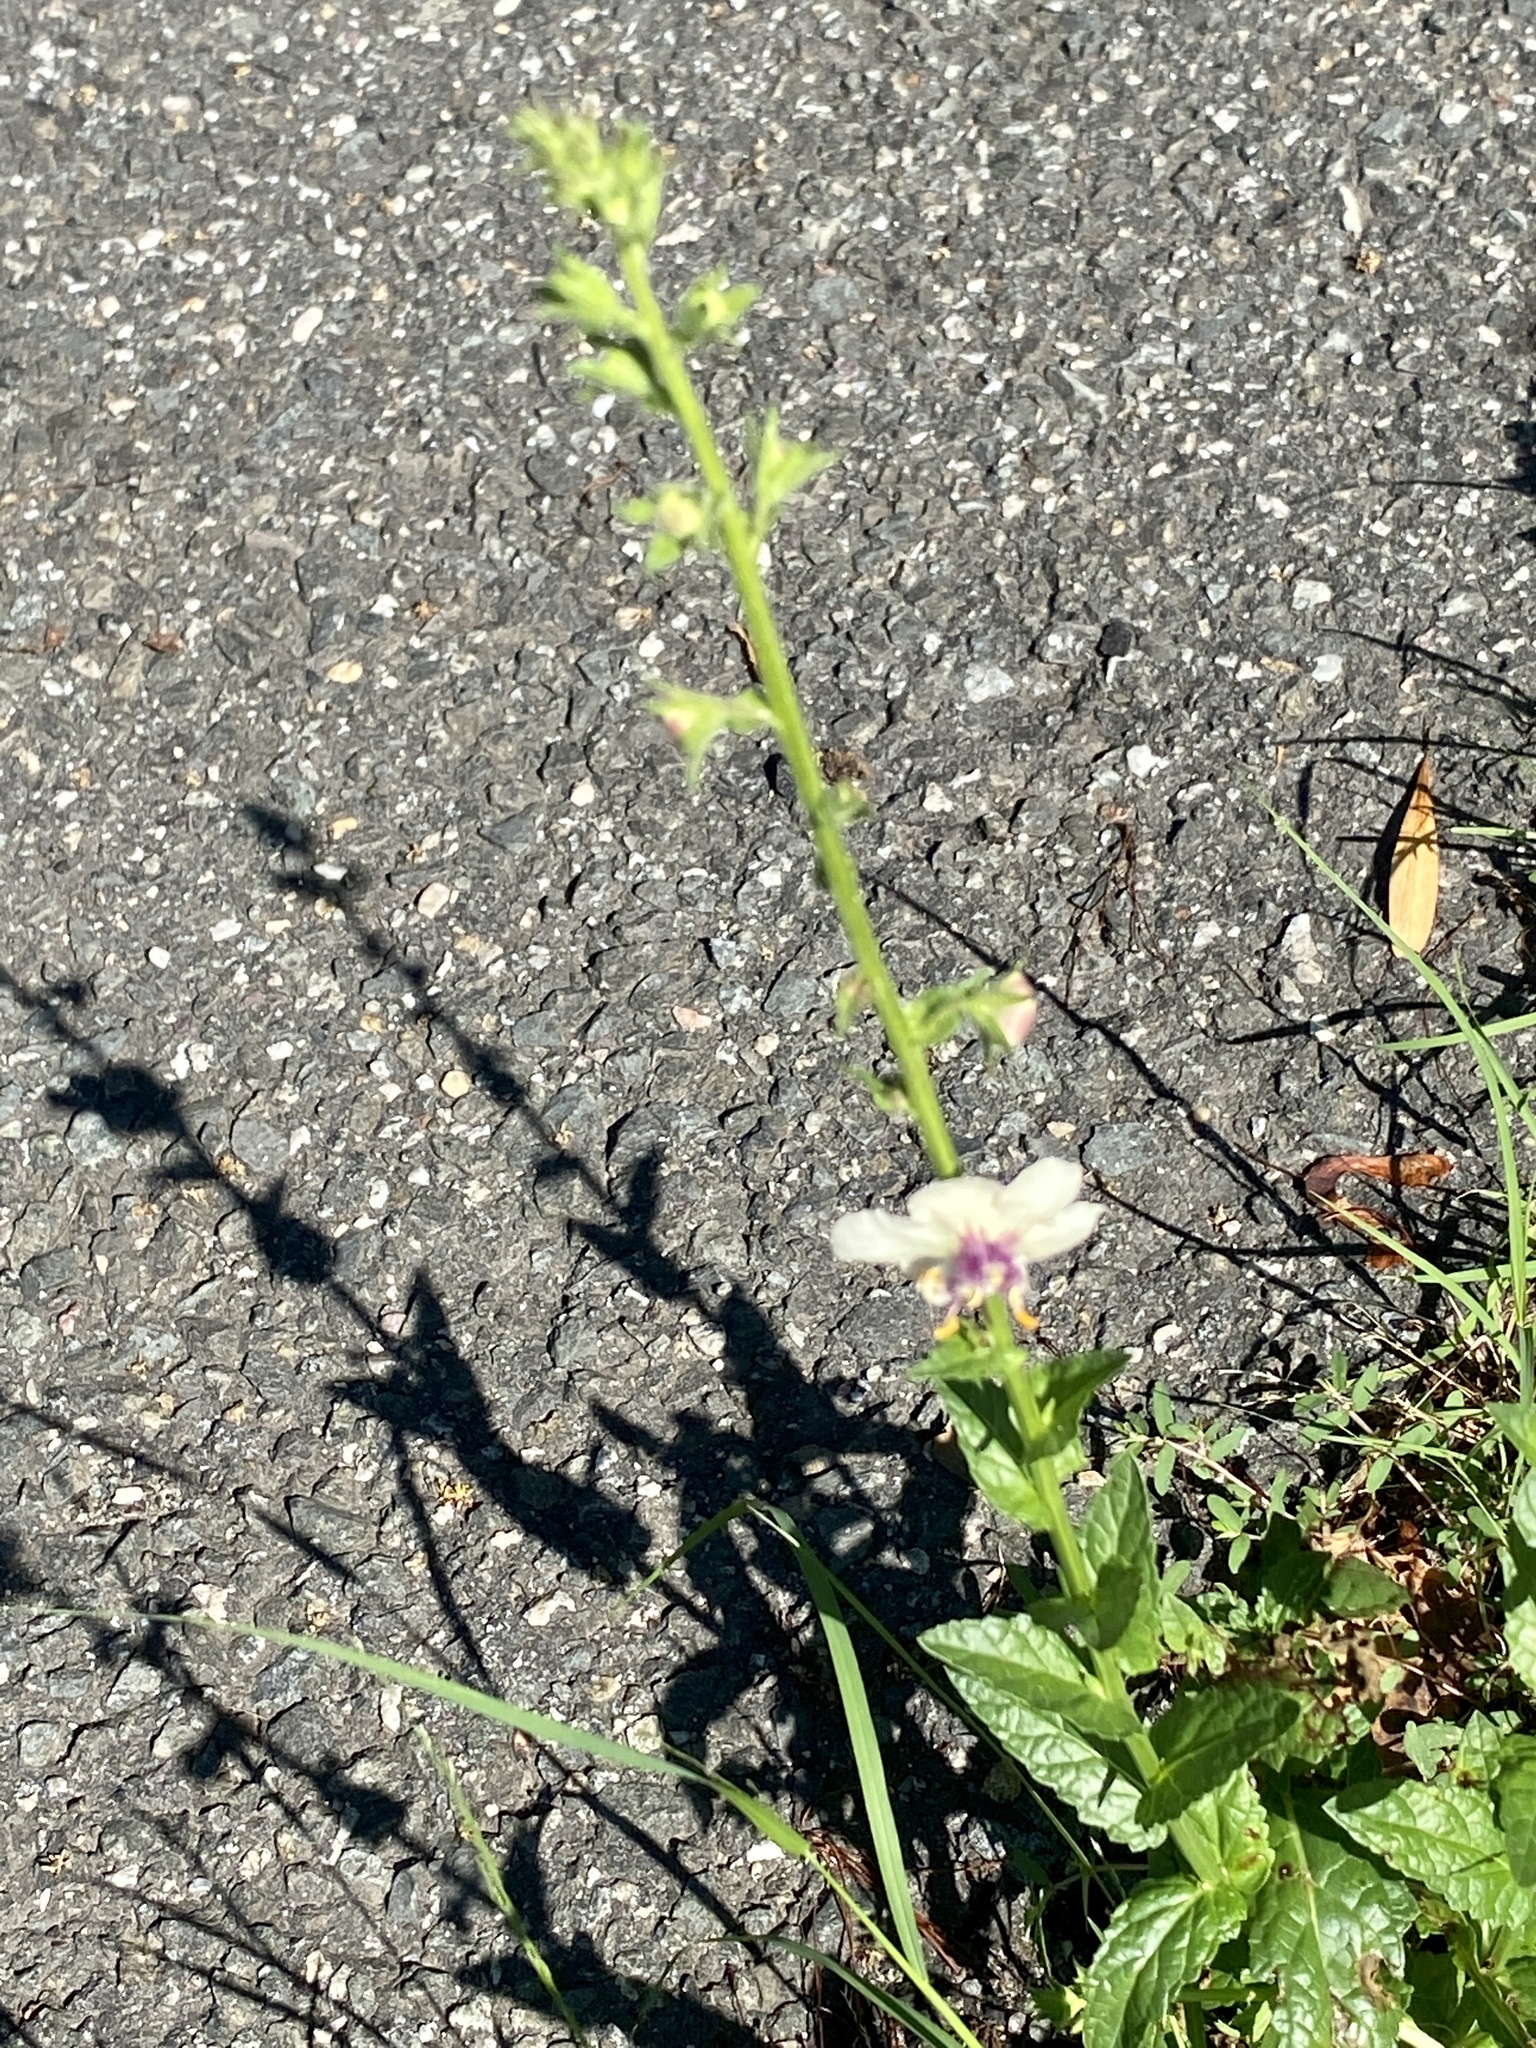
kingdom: Plantae
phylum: Tracheophyta
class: Magnoliopsida
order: Lamiales
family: Scrophulariaceae
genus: Verbascum
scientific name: Verbascum blattaria
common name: Moth mullein
